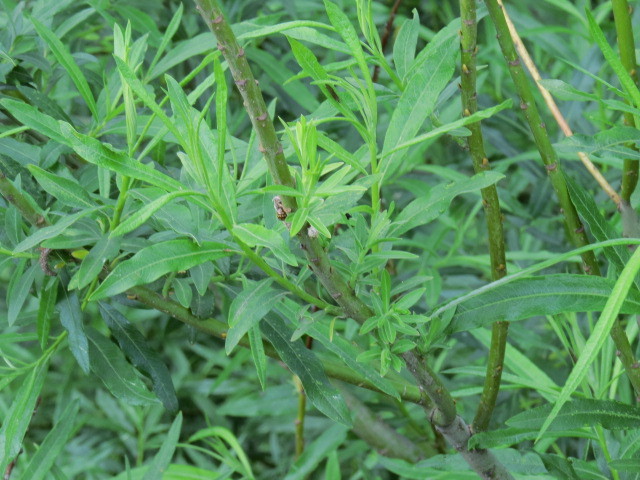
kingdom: Plantae
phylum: Tracheophyta
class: Magnoliopsida
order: Malpighiales
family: Salicaceae
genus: Salix
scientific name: Salix viminalis
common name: Osier
